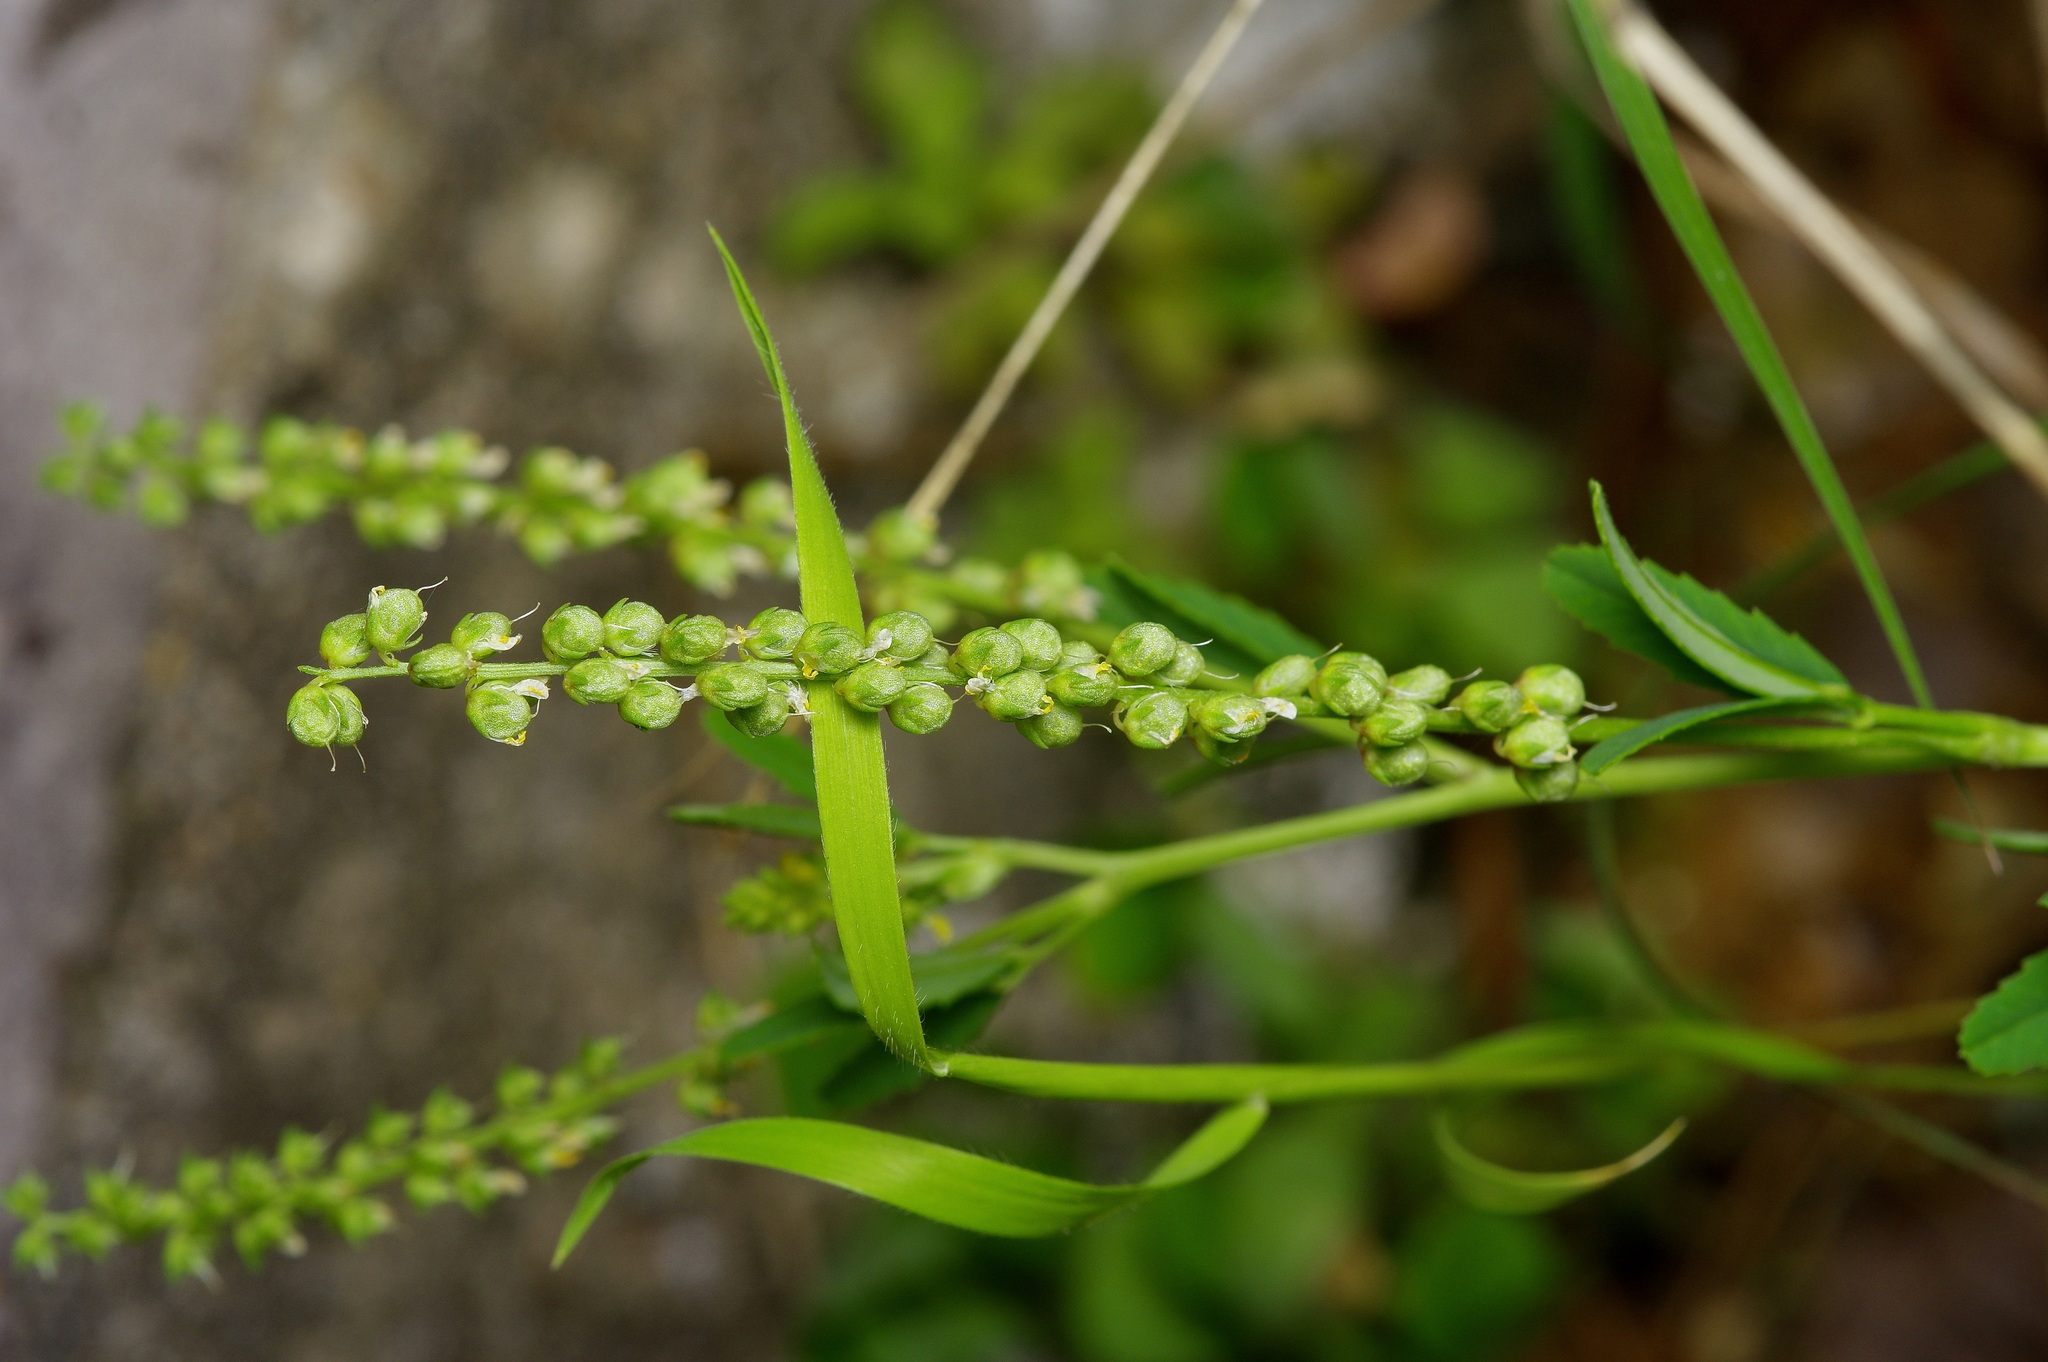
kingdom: Plantae
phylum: Tracheophyta
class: Magnoliopsida
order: Fabales
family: Fabaceae
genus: Melilotus
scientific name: Melilotus indicus
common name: Small melilot
